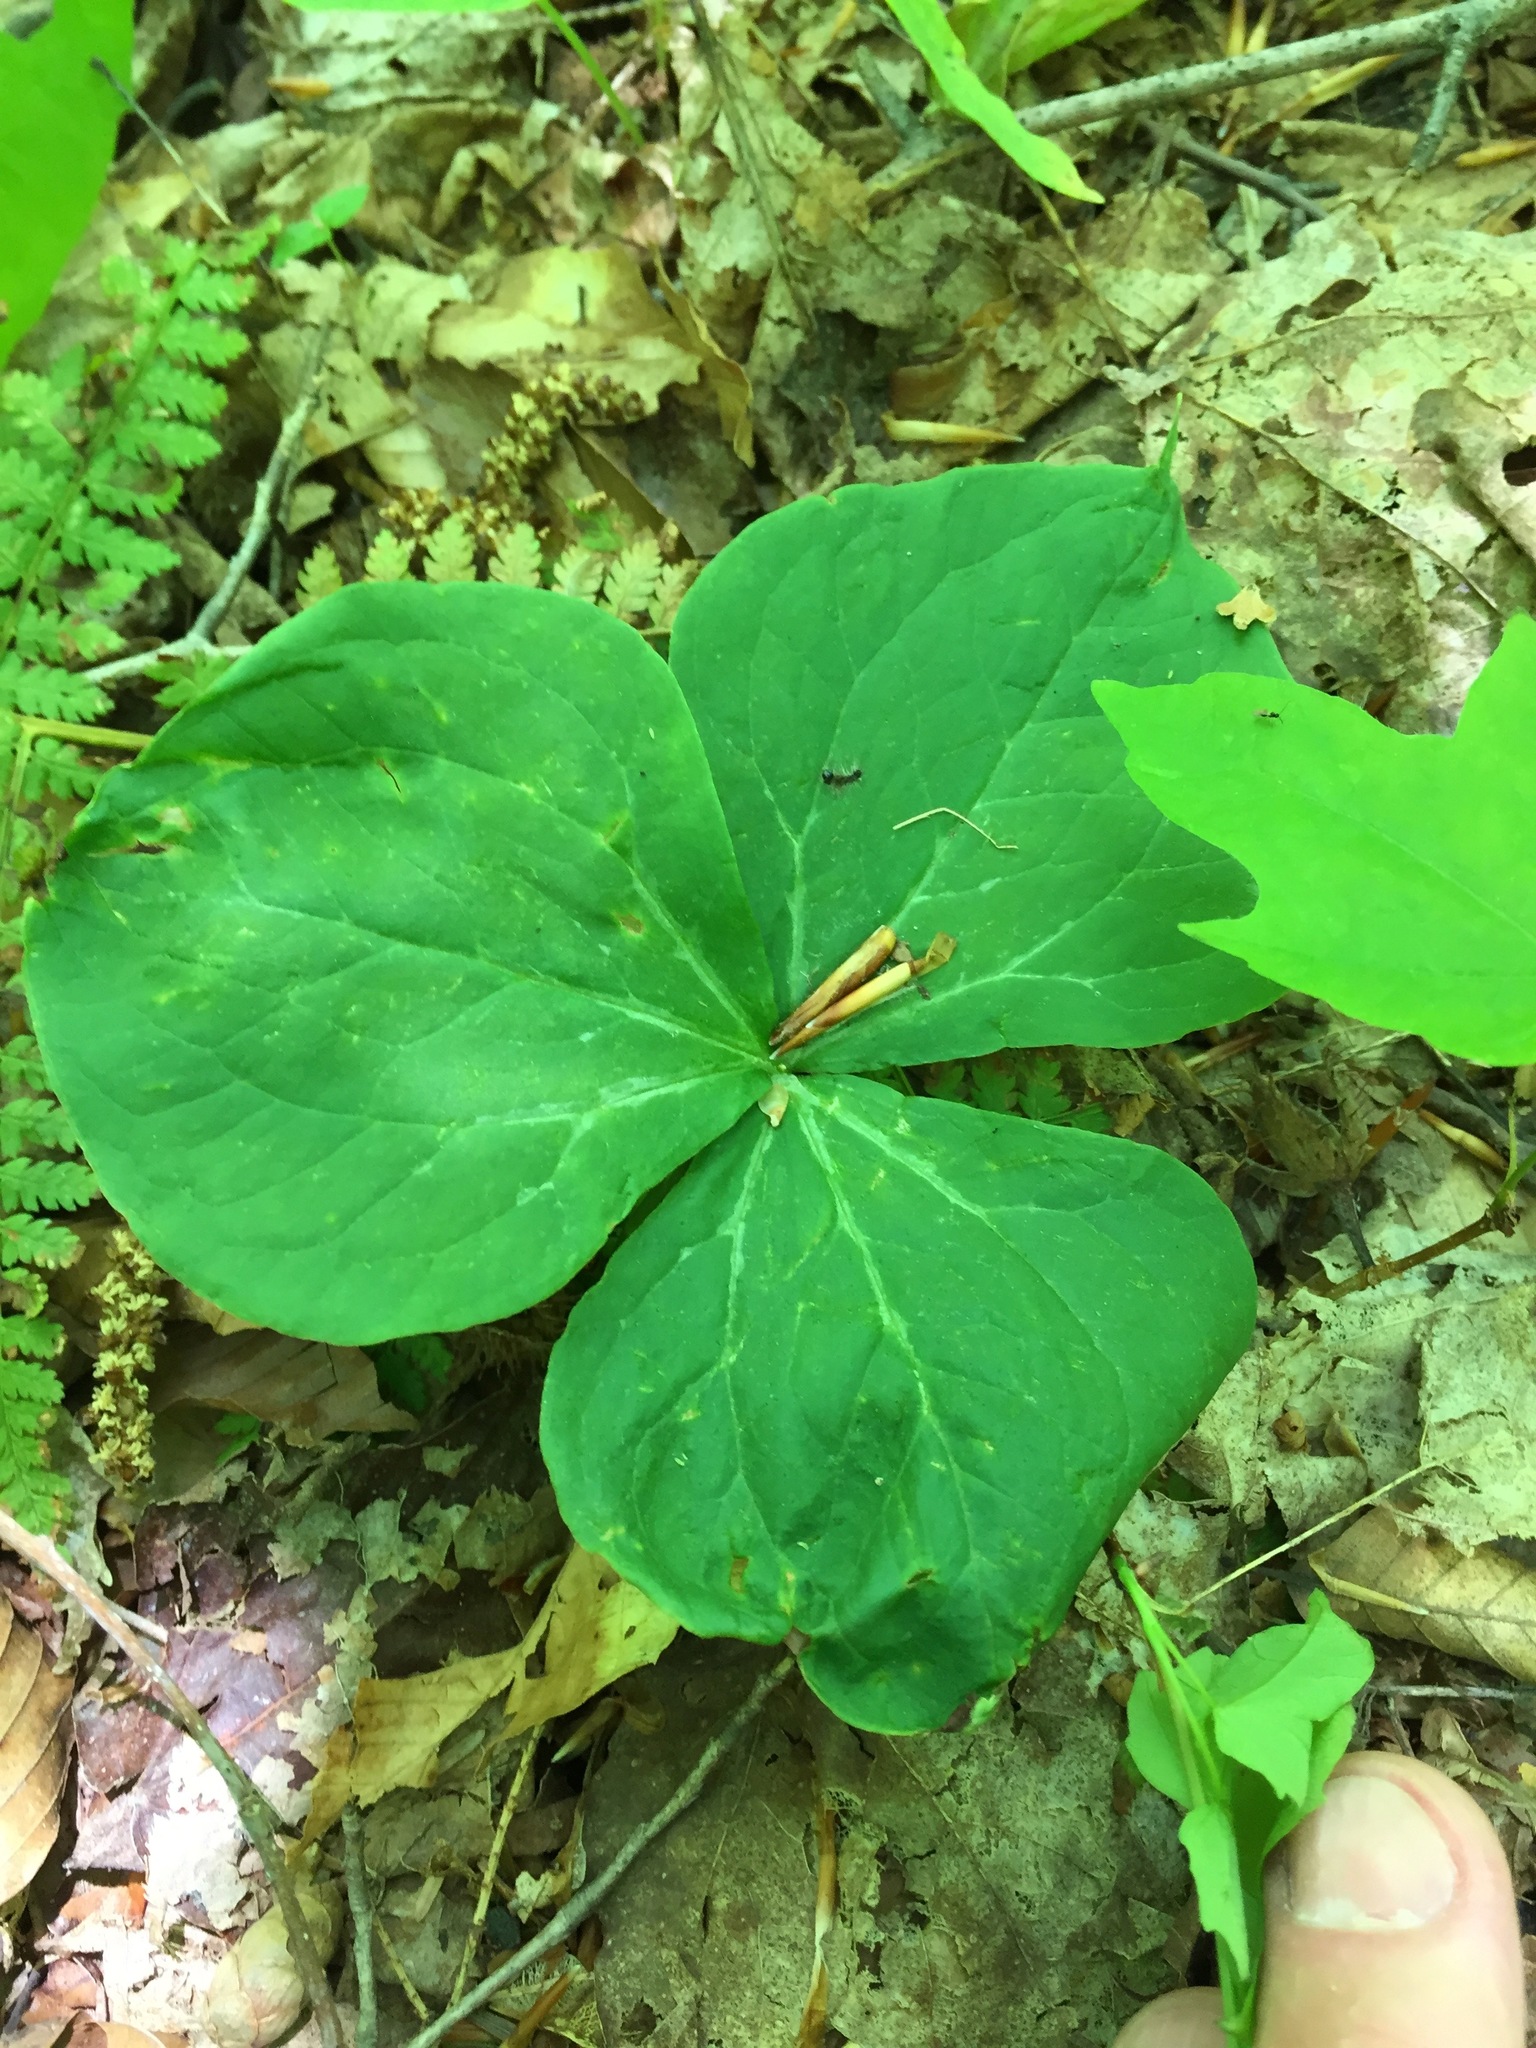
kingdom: Plantae
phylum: Tracheophyta
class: Liliopsida
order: Liliales
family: Melanthiaceae
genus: Trillium
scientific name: Trillium erectum
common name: Purple trillium
